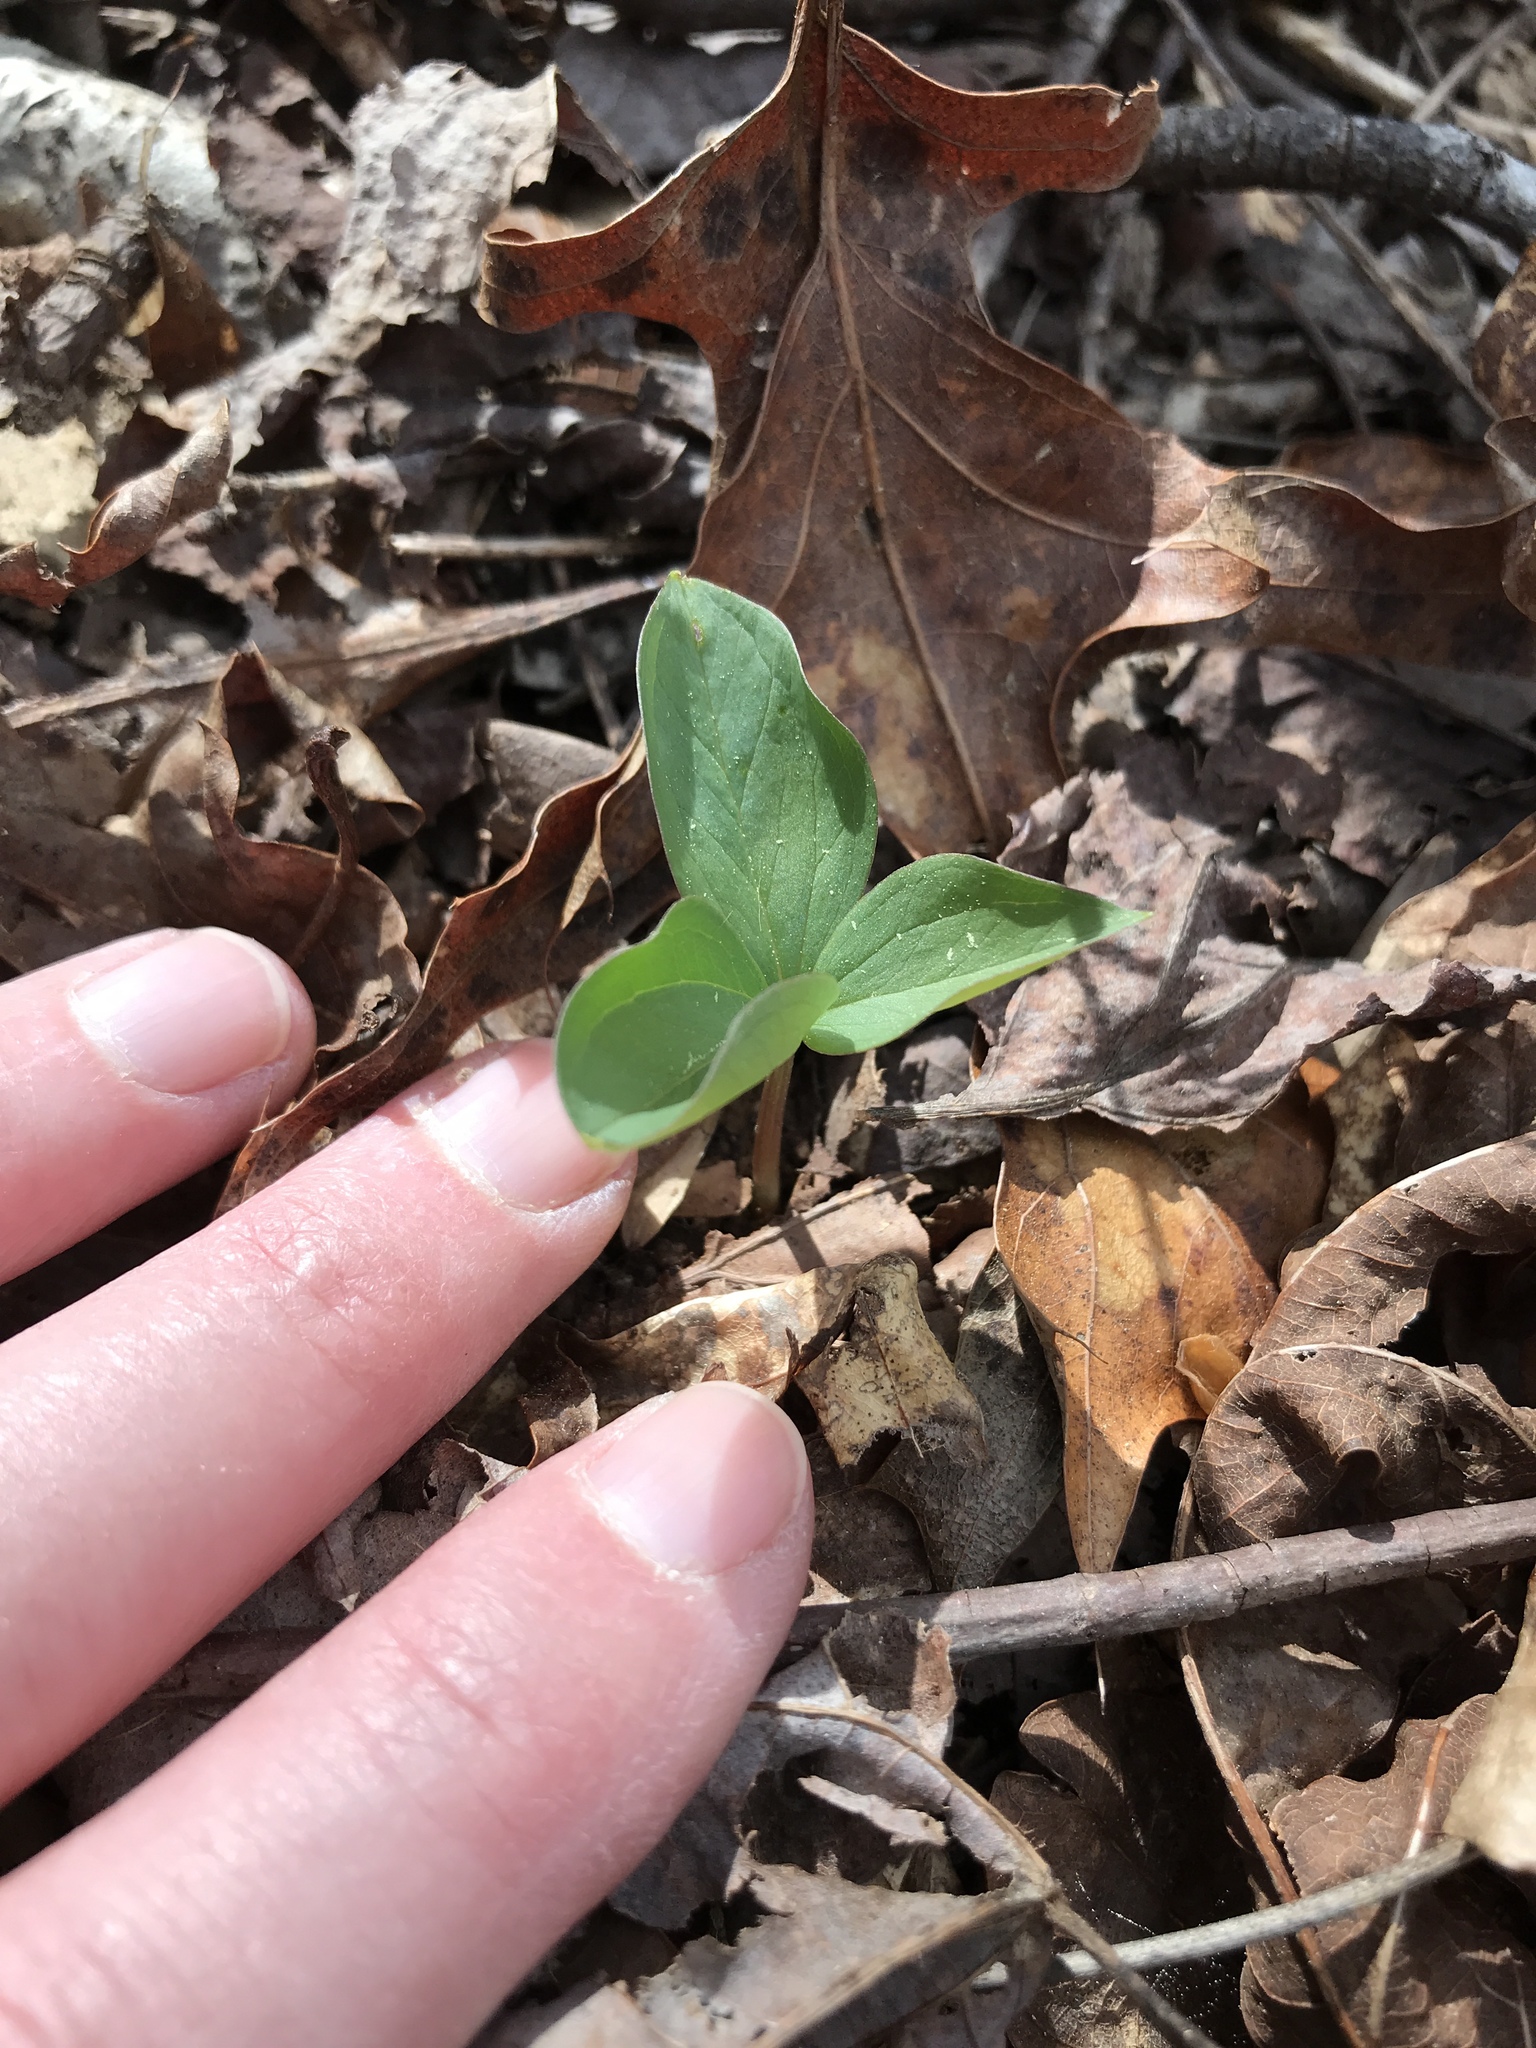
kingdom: Plantae
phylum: Tracheophyta
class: Liliopsida
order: Liliales
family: Melanthiaceae
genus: Trillium
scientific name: Trillium catesbaei
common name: Bashful trillium
